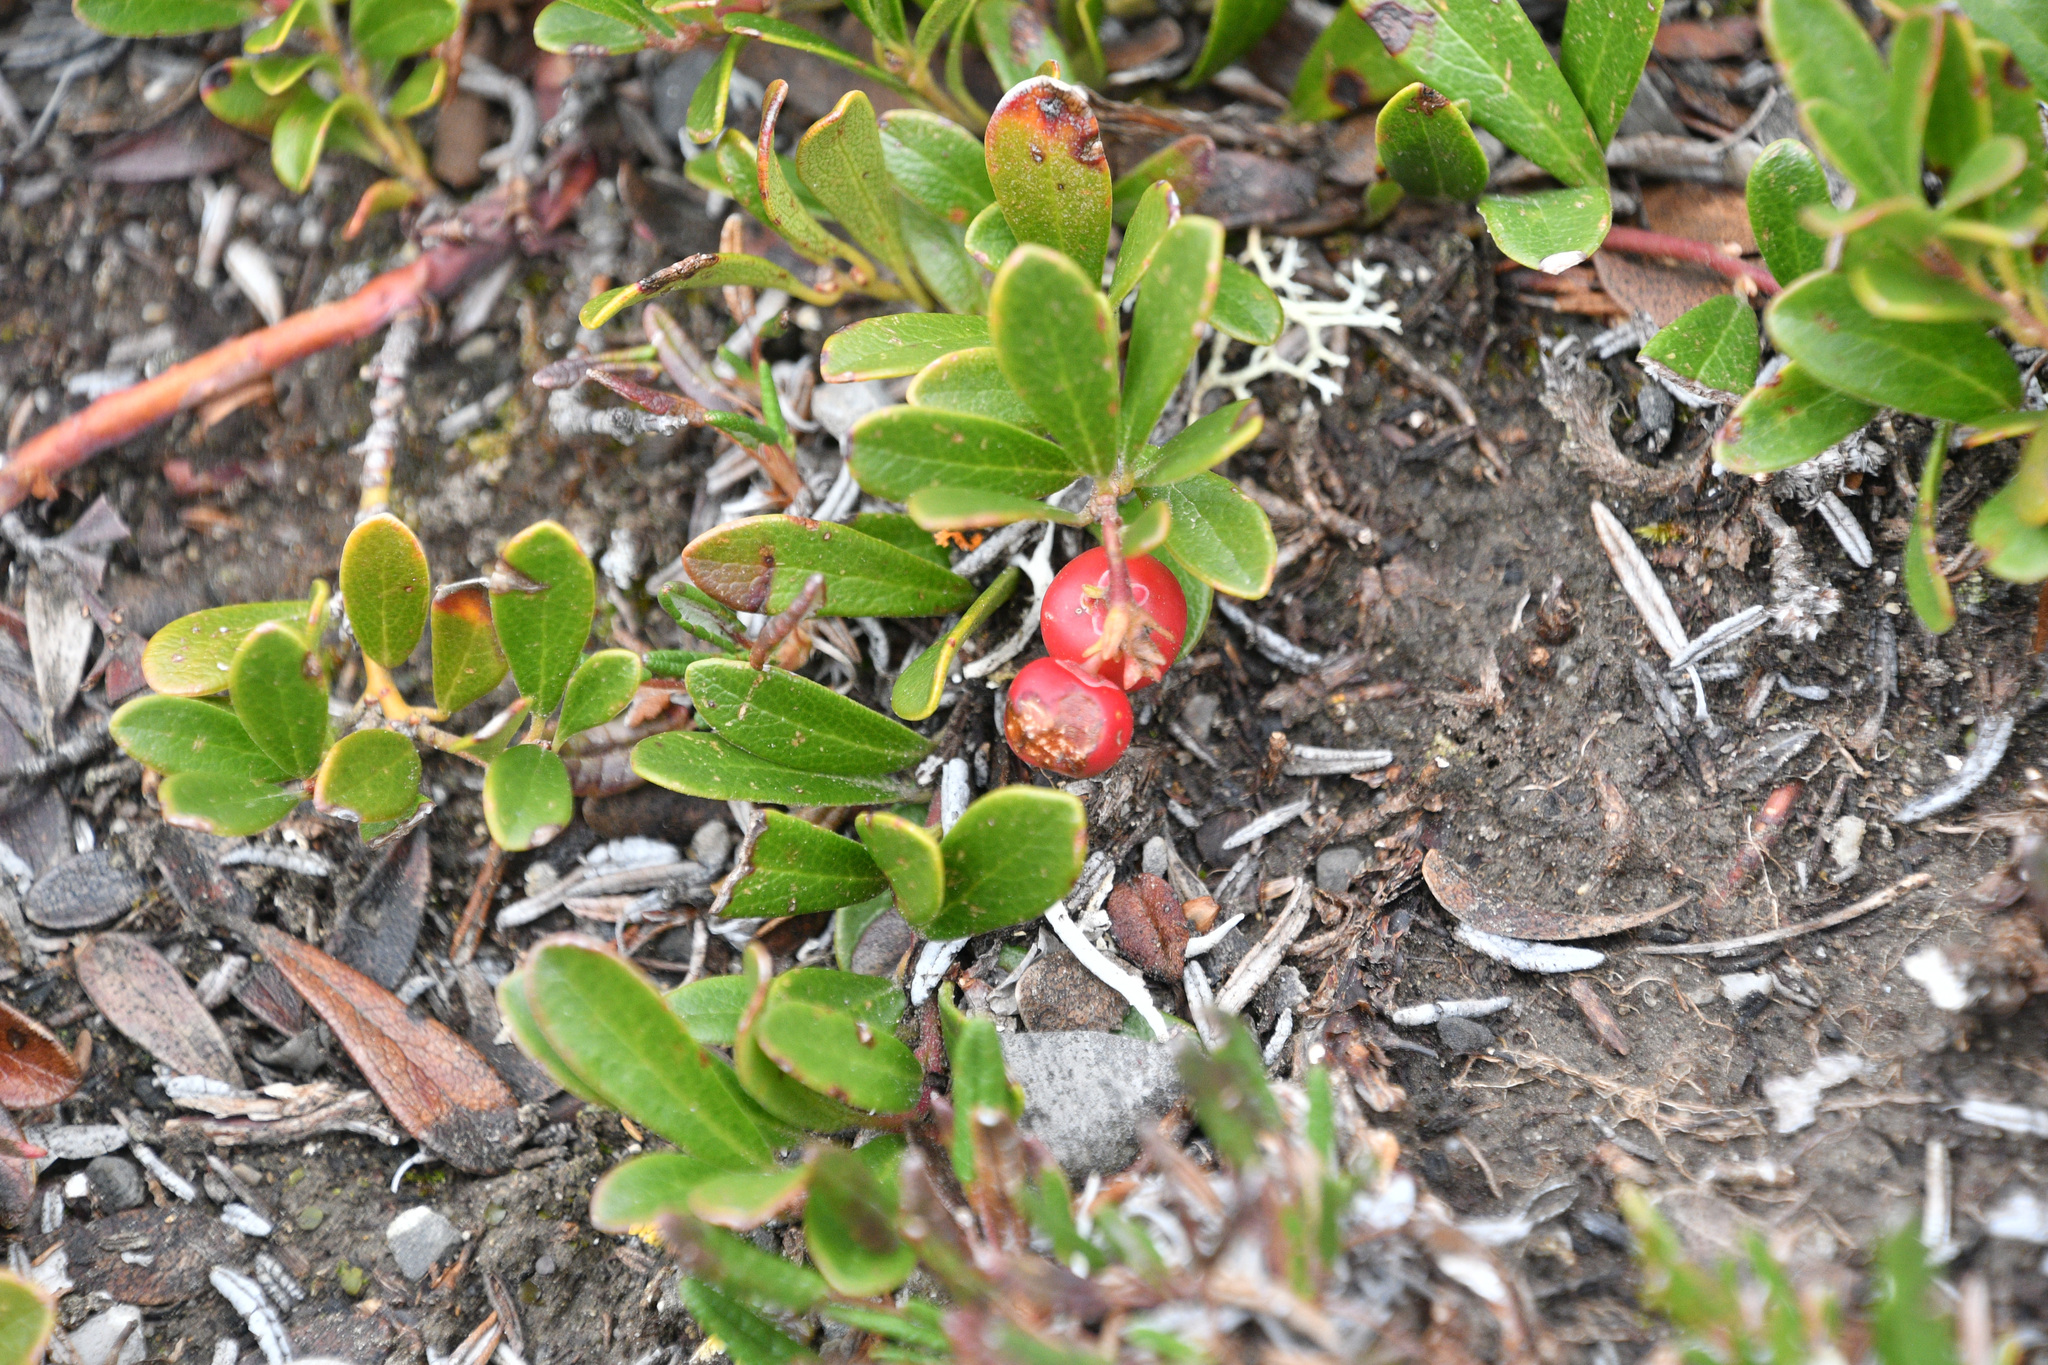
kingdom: Plantae
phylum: Tracheophyta
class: Magnoliopsida
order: Ericales
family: Ericaceae
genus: Arctostaphylos
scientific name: Arctostaphylos uva-ursi
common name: Bearberry
